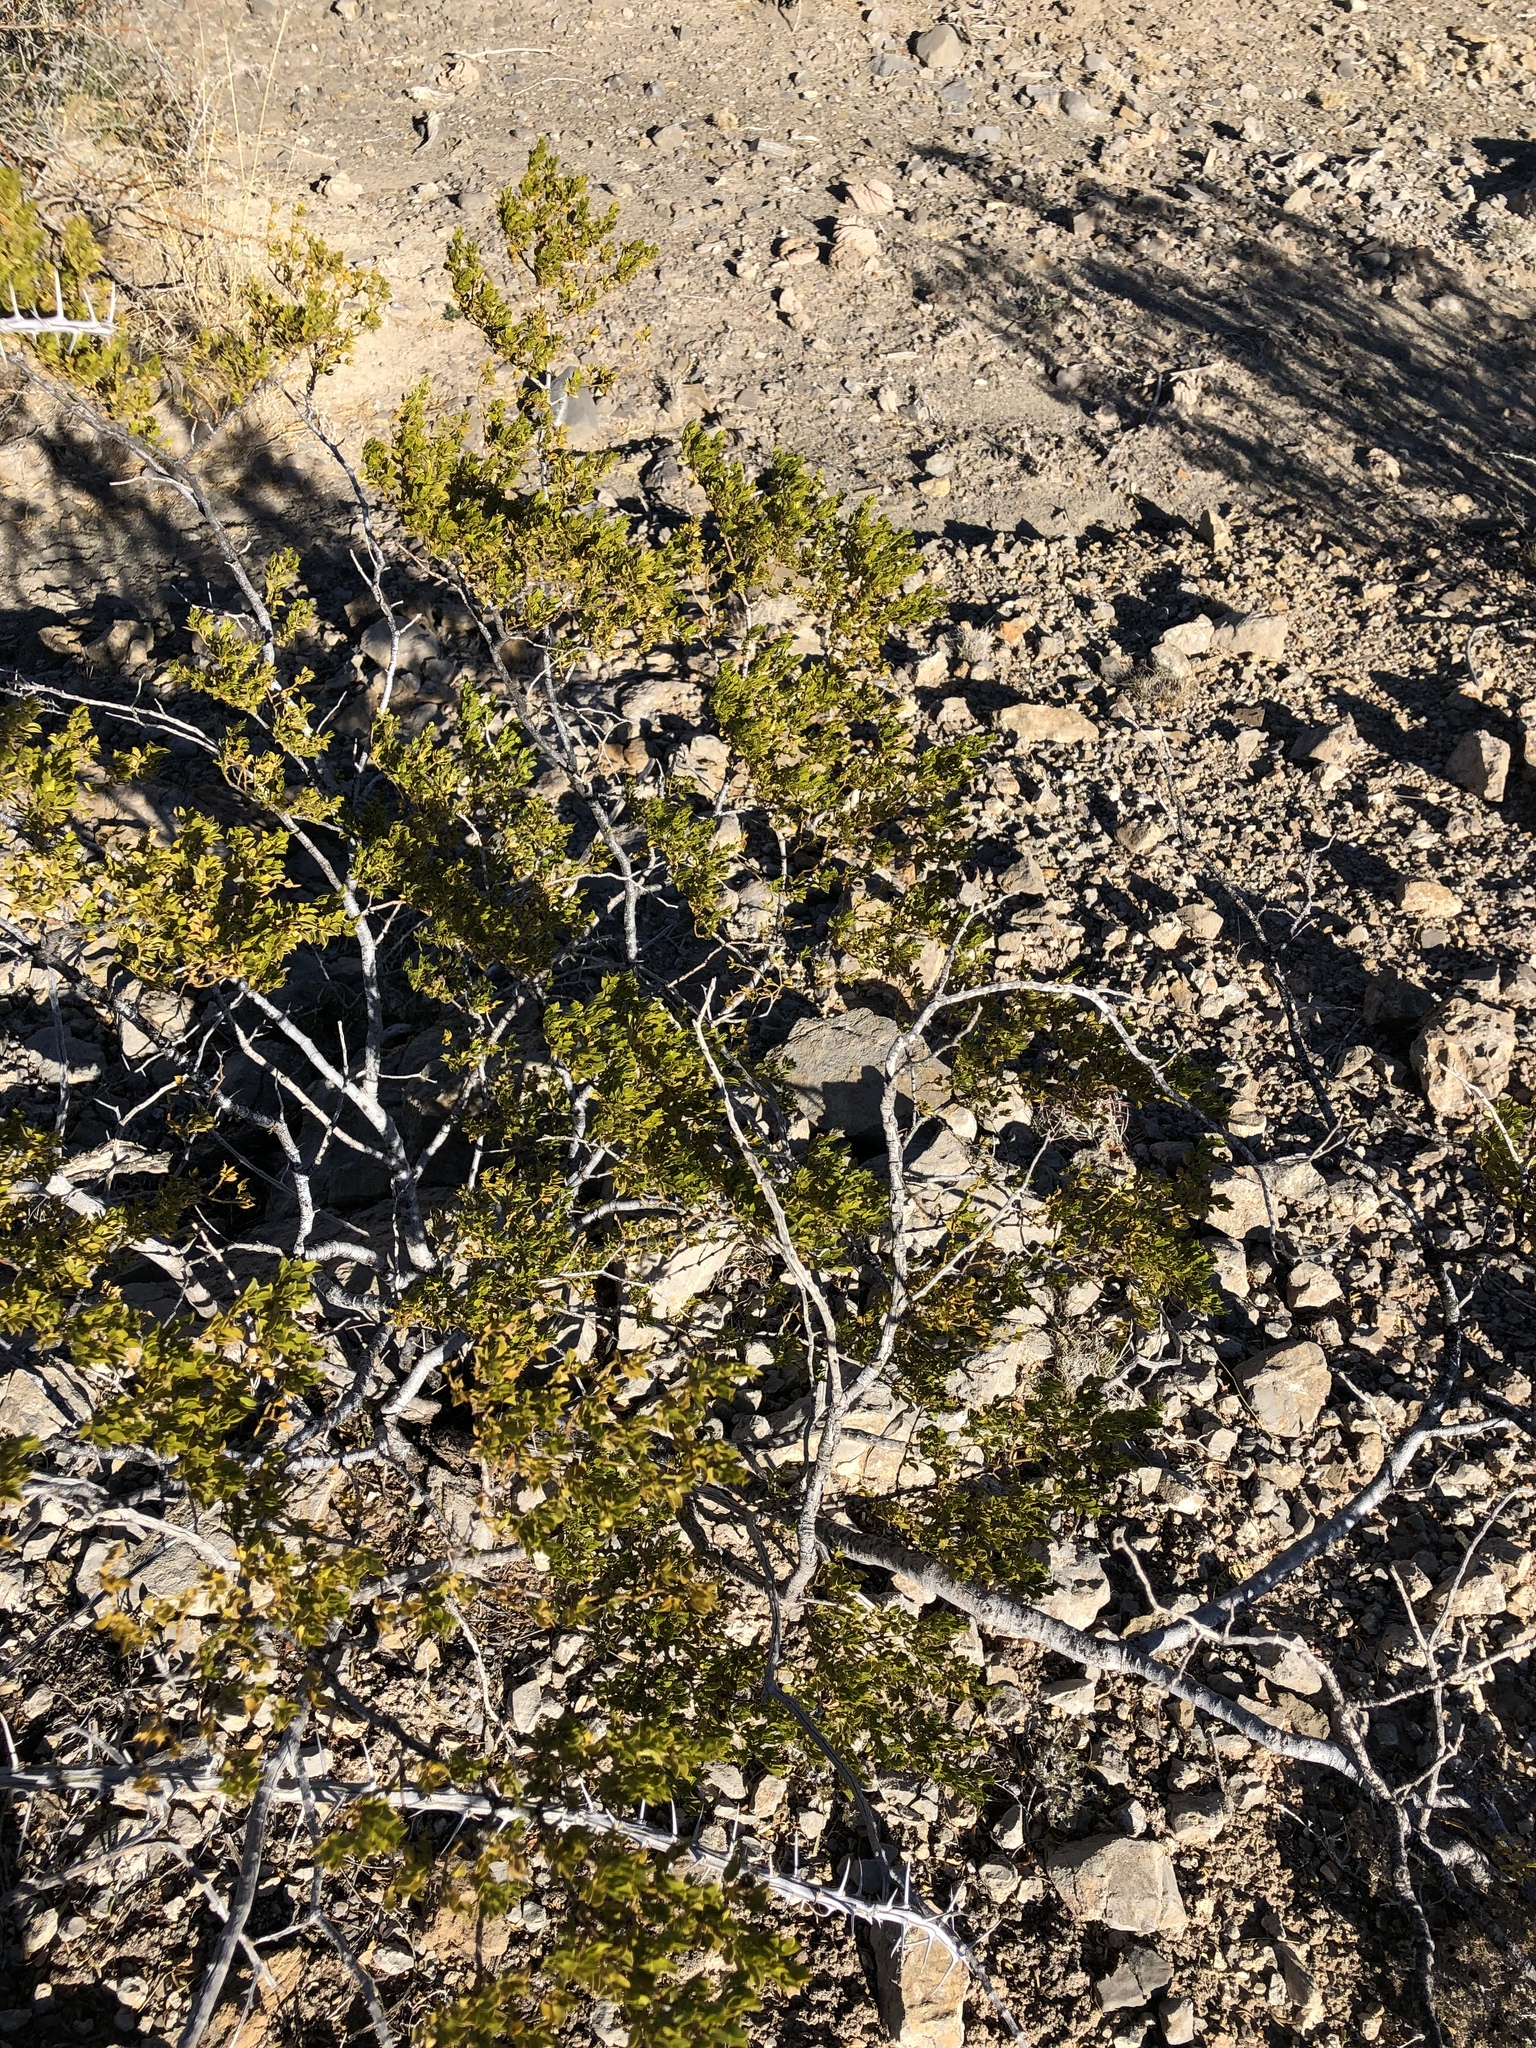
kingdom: Plantae
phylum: Tracheophyta
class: Magnoliopsida
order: Zygophyllales
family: Zygophyllaceae
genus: Larrea
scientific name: Larrea tridentata
